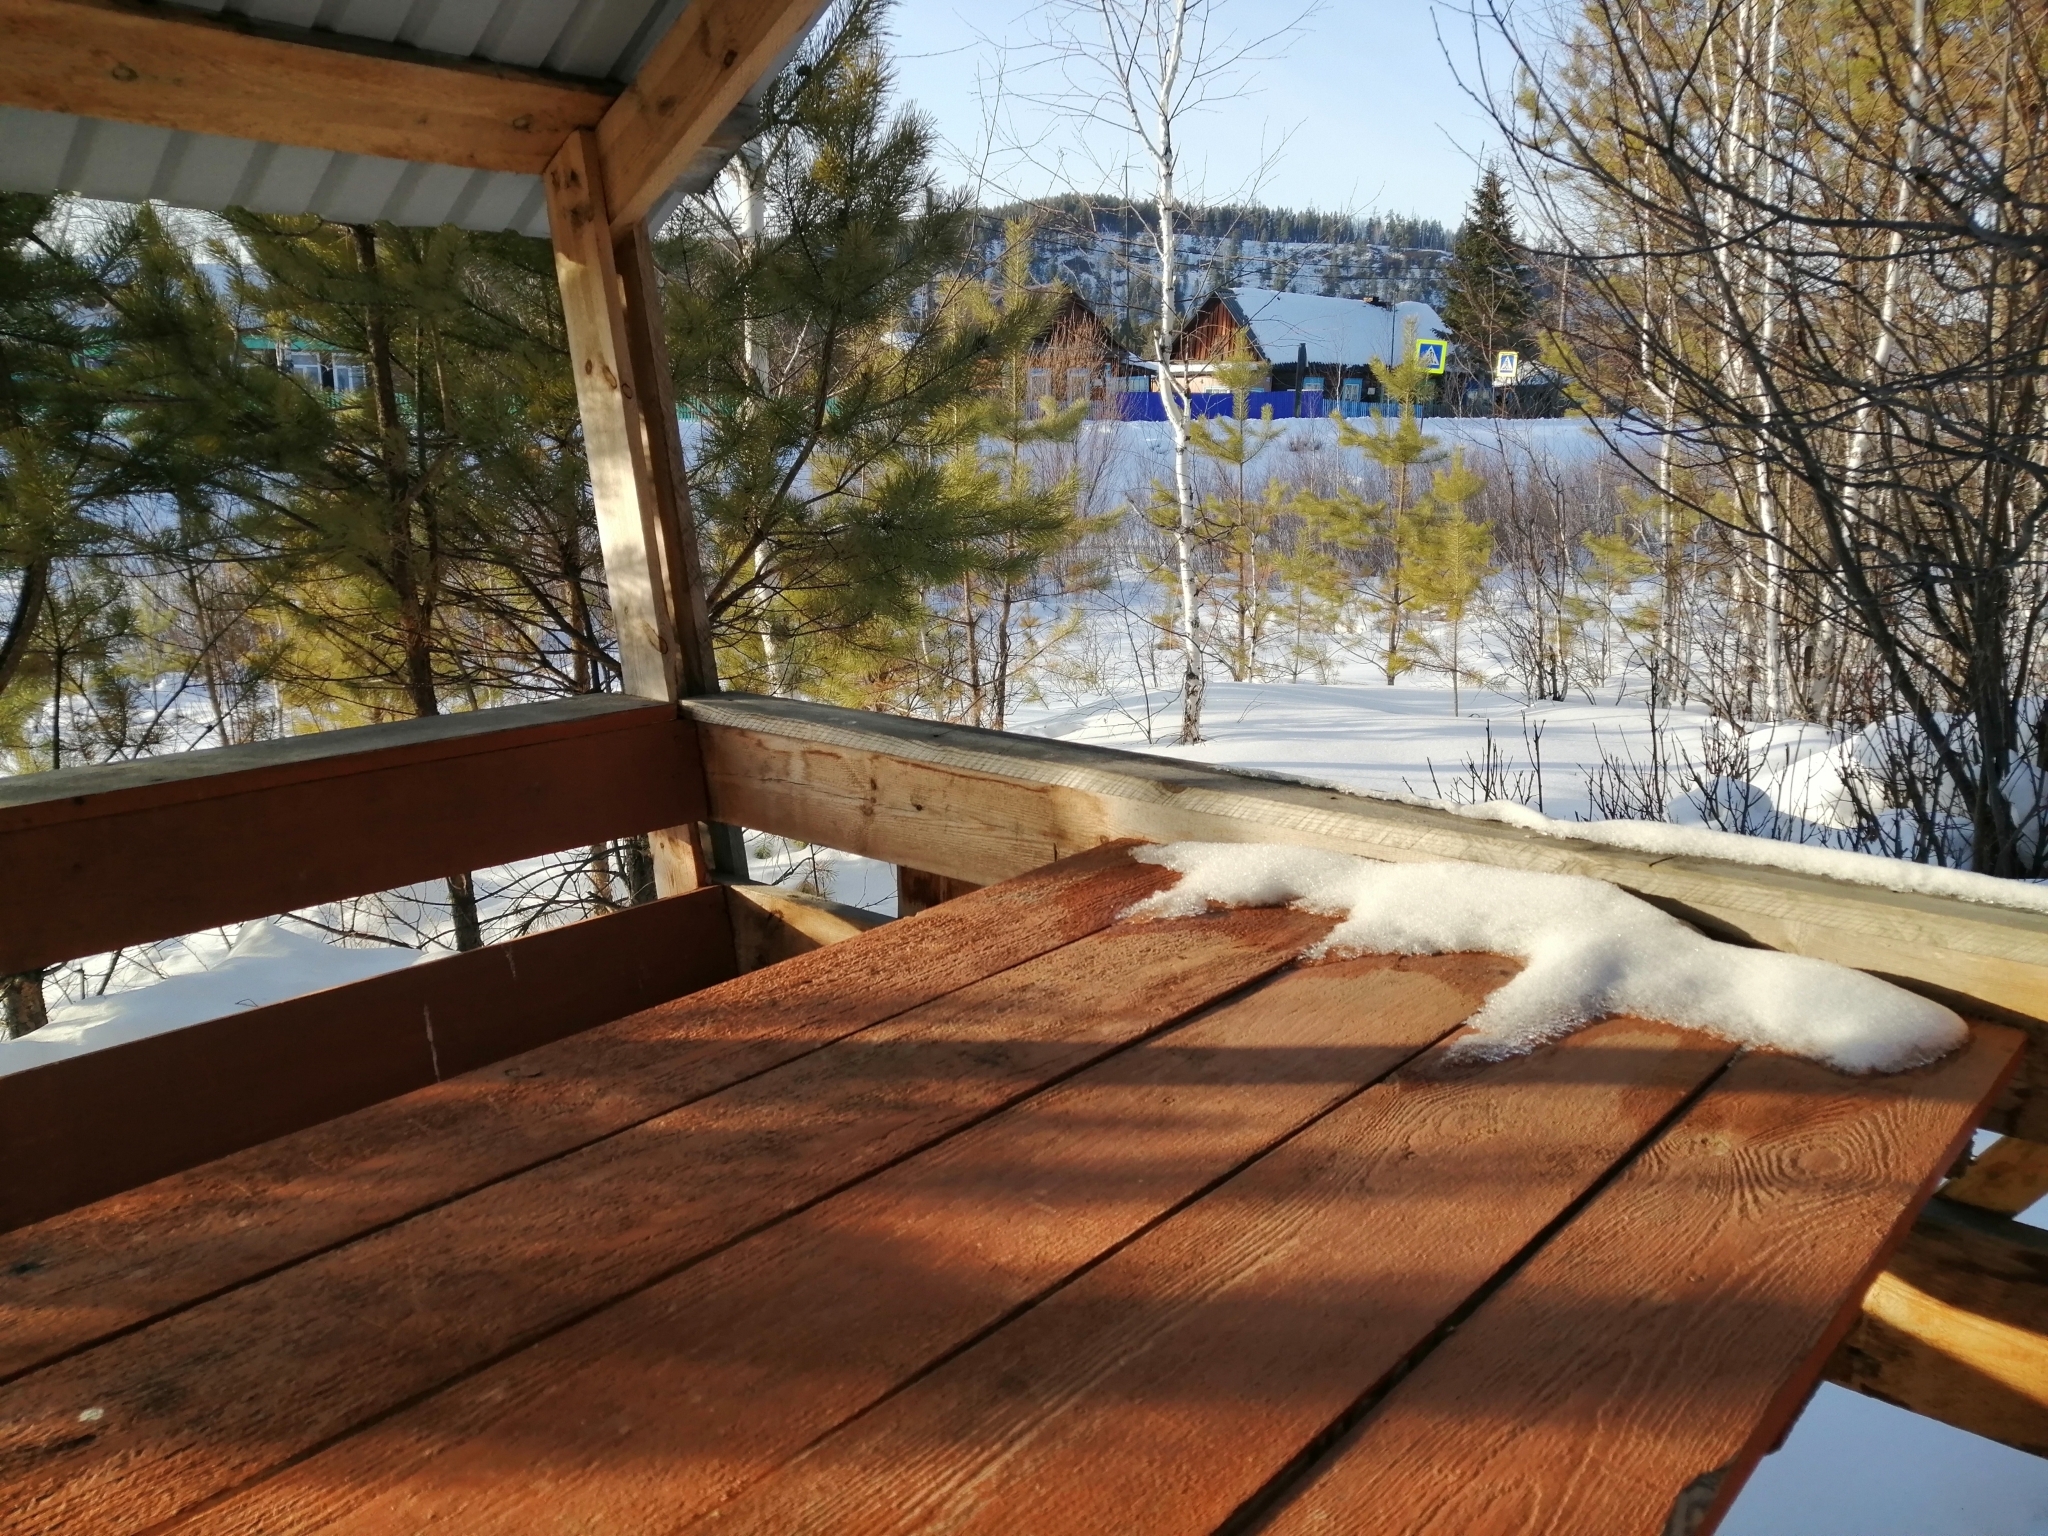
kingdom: Plantae
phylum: Tracheophyta
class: Pinopsida
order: Pinales
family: Pinaceae
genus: Pinus
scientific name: Pinus sylvestris
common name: Scots pine
